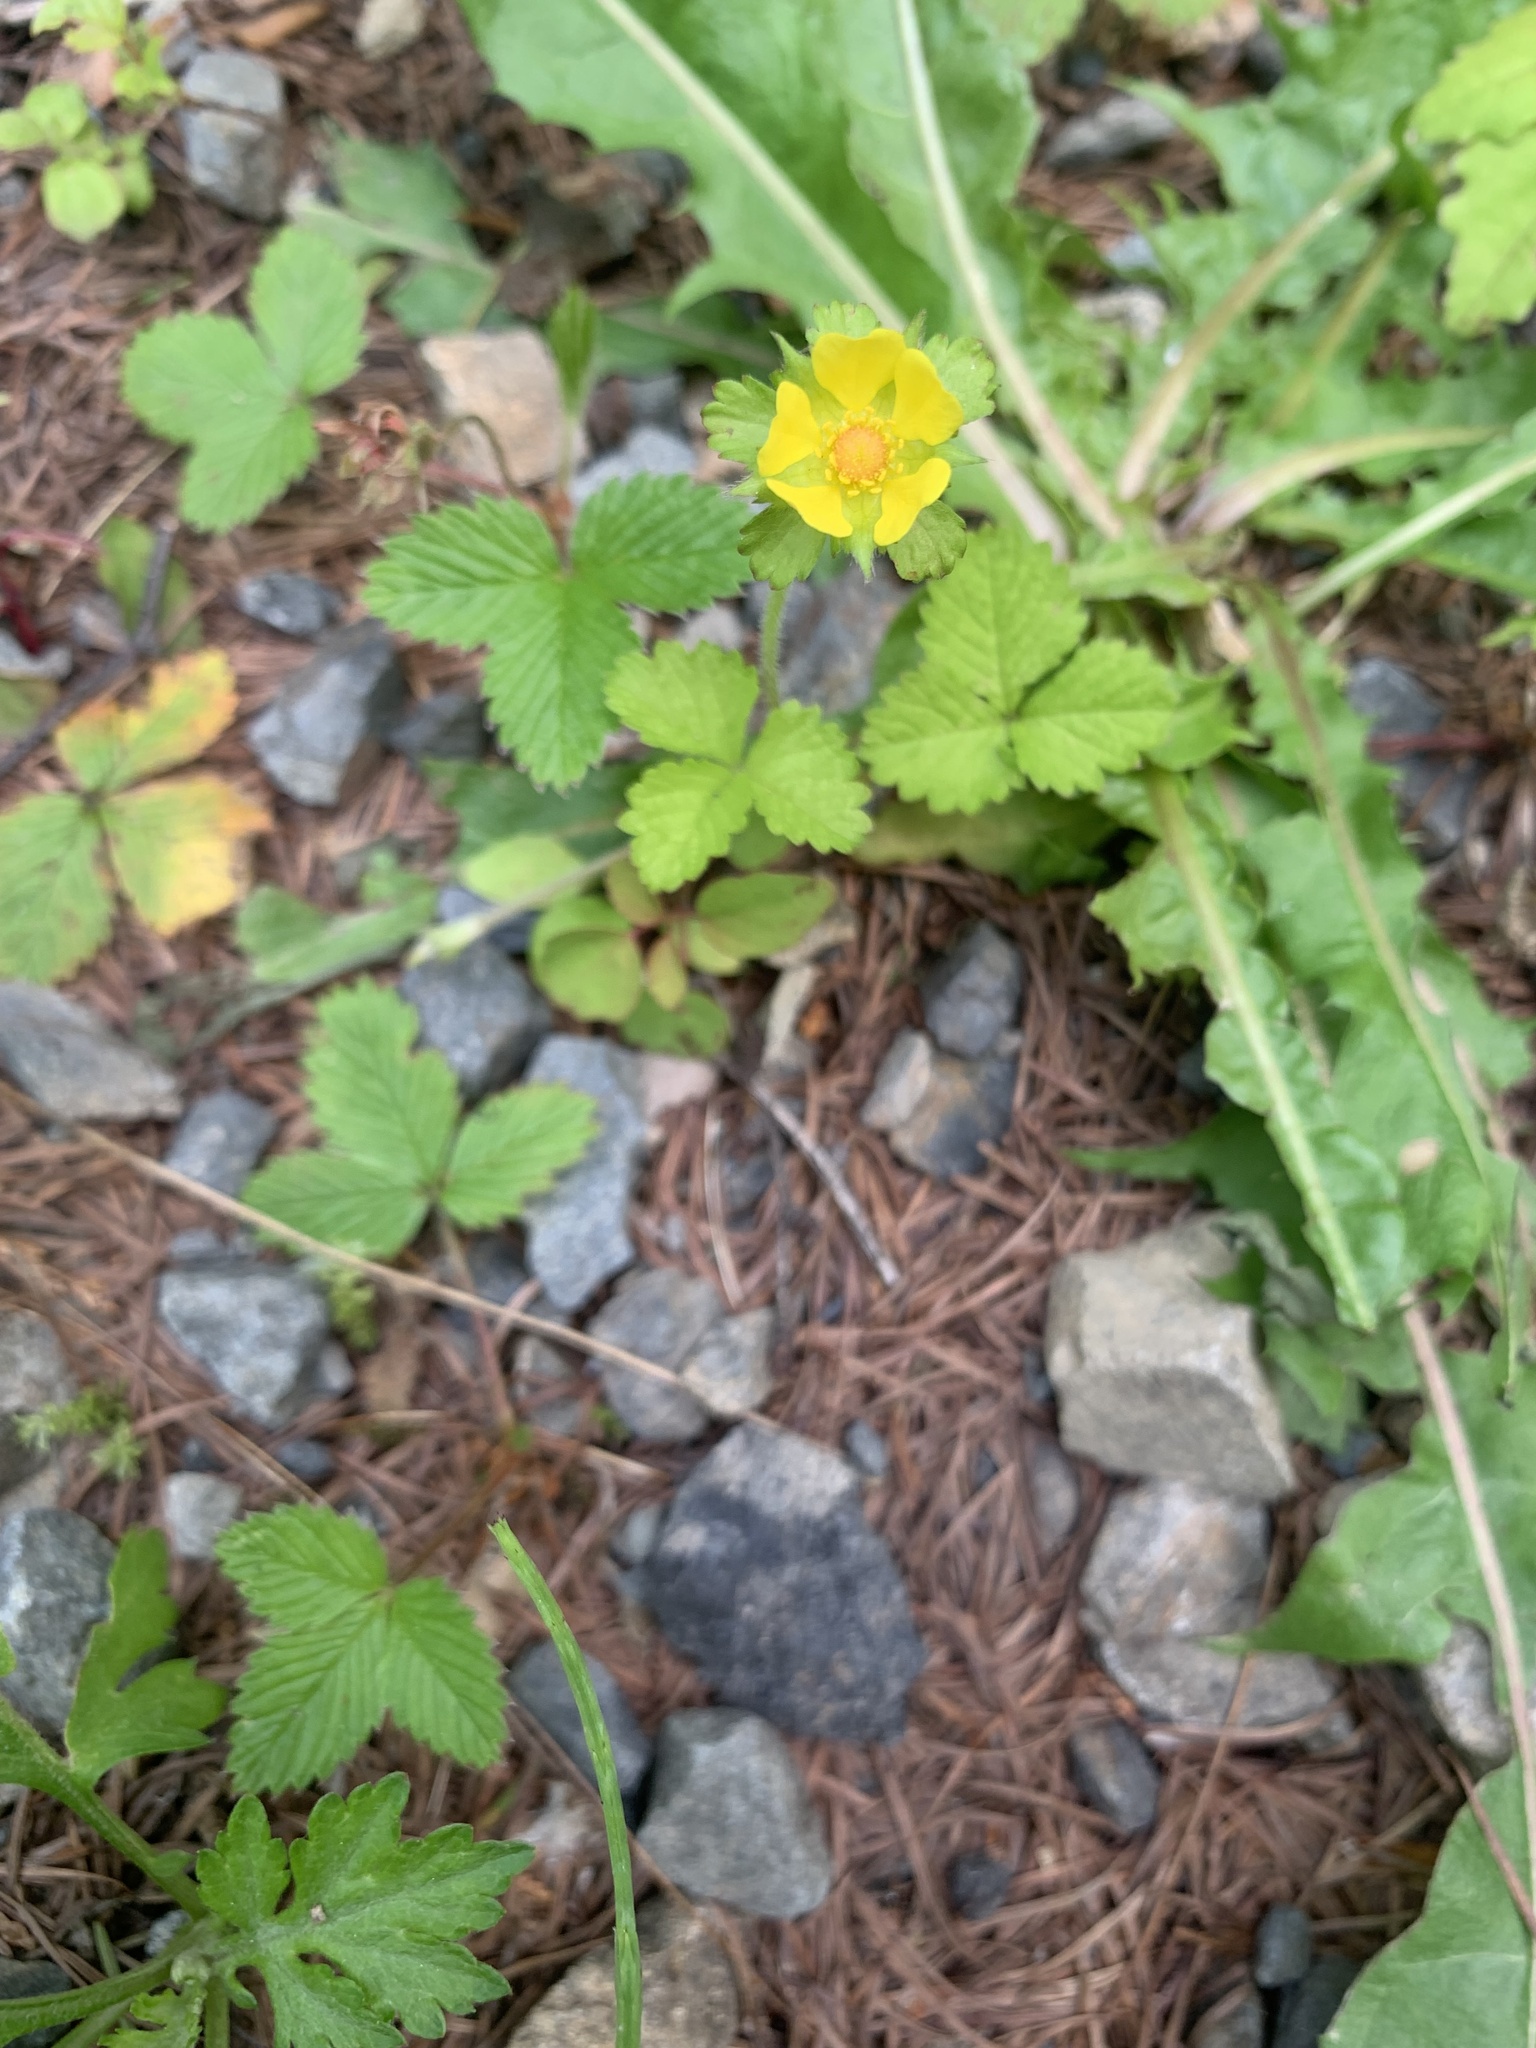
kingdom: Plantae
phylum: Tracheophyta
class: Magnoliopsida
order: Rosales
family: Rosaceae
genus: Potentilla
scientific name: Potentilla wallichiana
